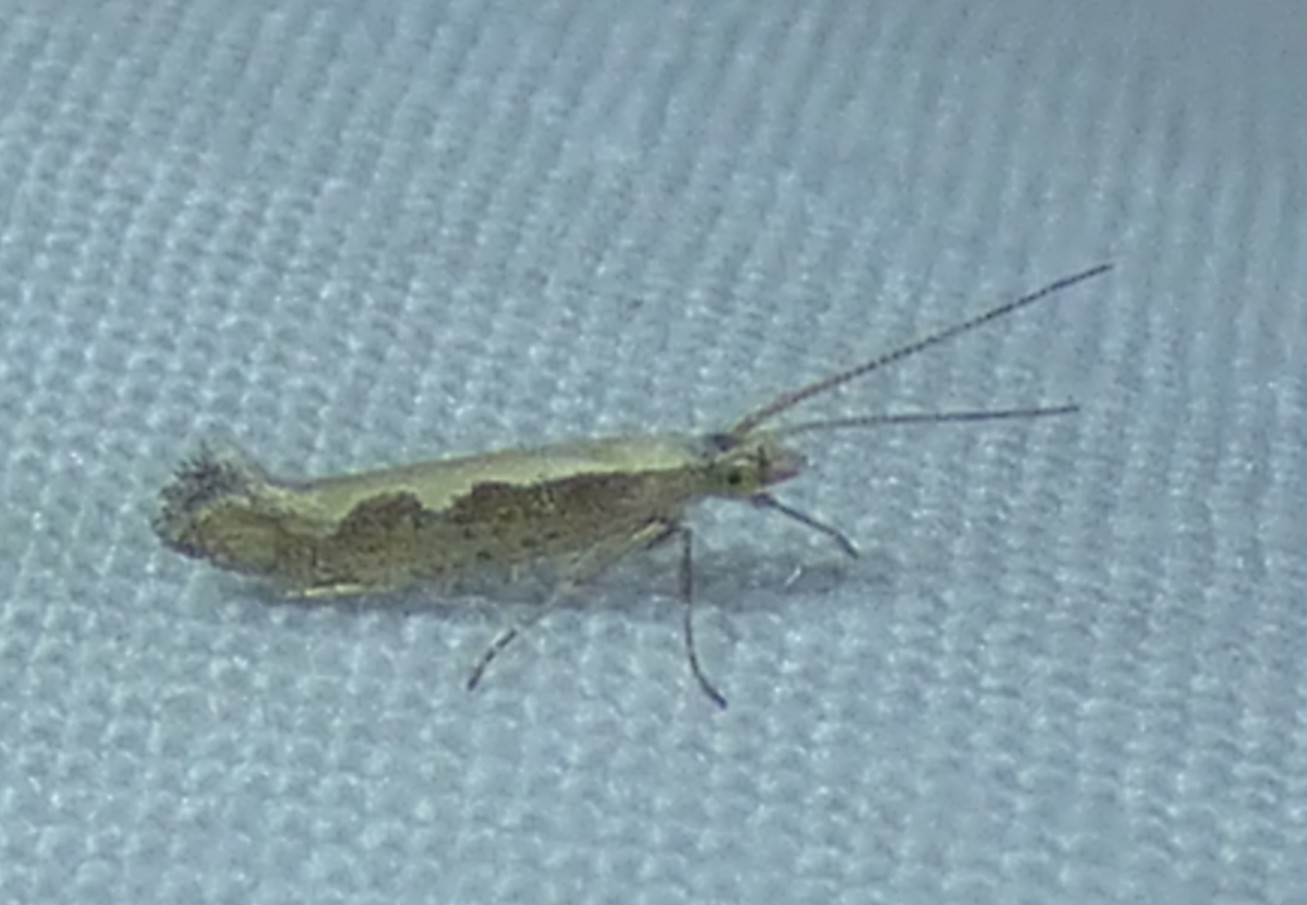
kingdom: Animalia
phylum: Arthropoda
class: Insecta
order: Lepidoptera
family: Plutellidae
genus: Plutella
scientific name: Plutella xylostella
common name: Diamond-back moth
